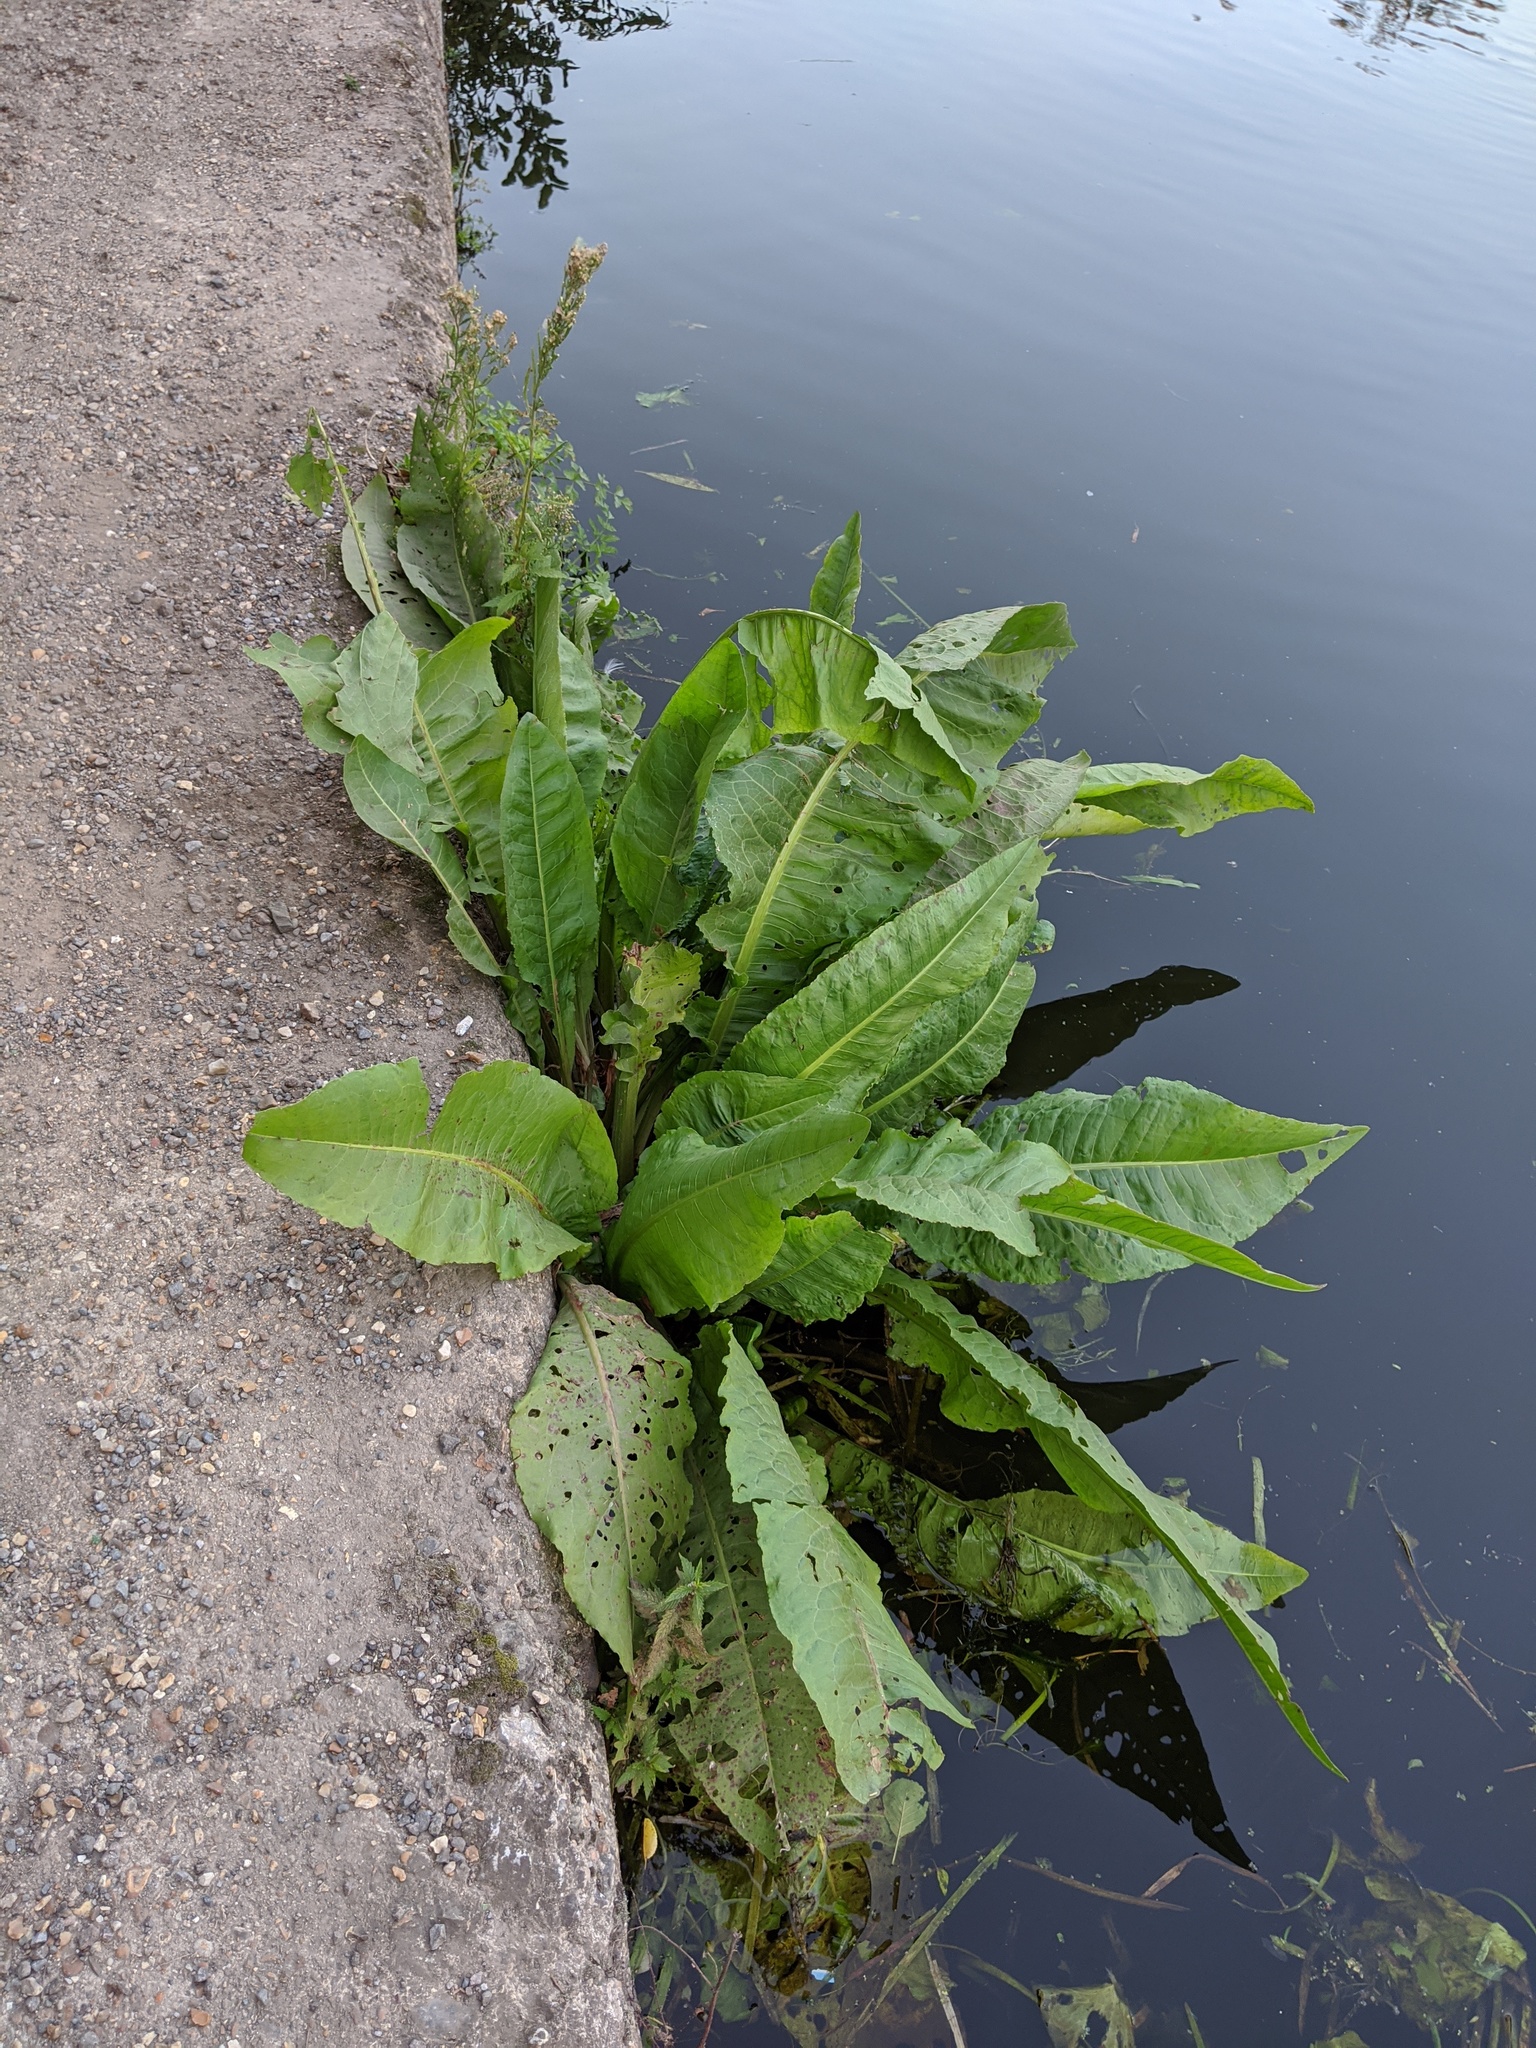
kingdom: Plantae
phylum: Tracheophyta
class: Magnoliopsida
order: Caryophyllales
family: Polygonaceae
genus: Rumex
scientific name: Rumex hydrolapathum
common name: Water dock
